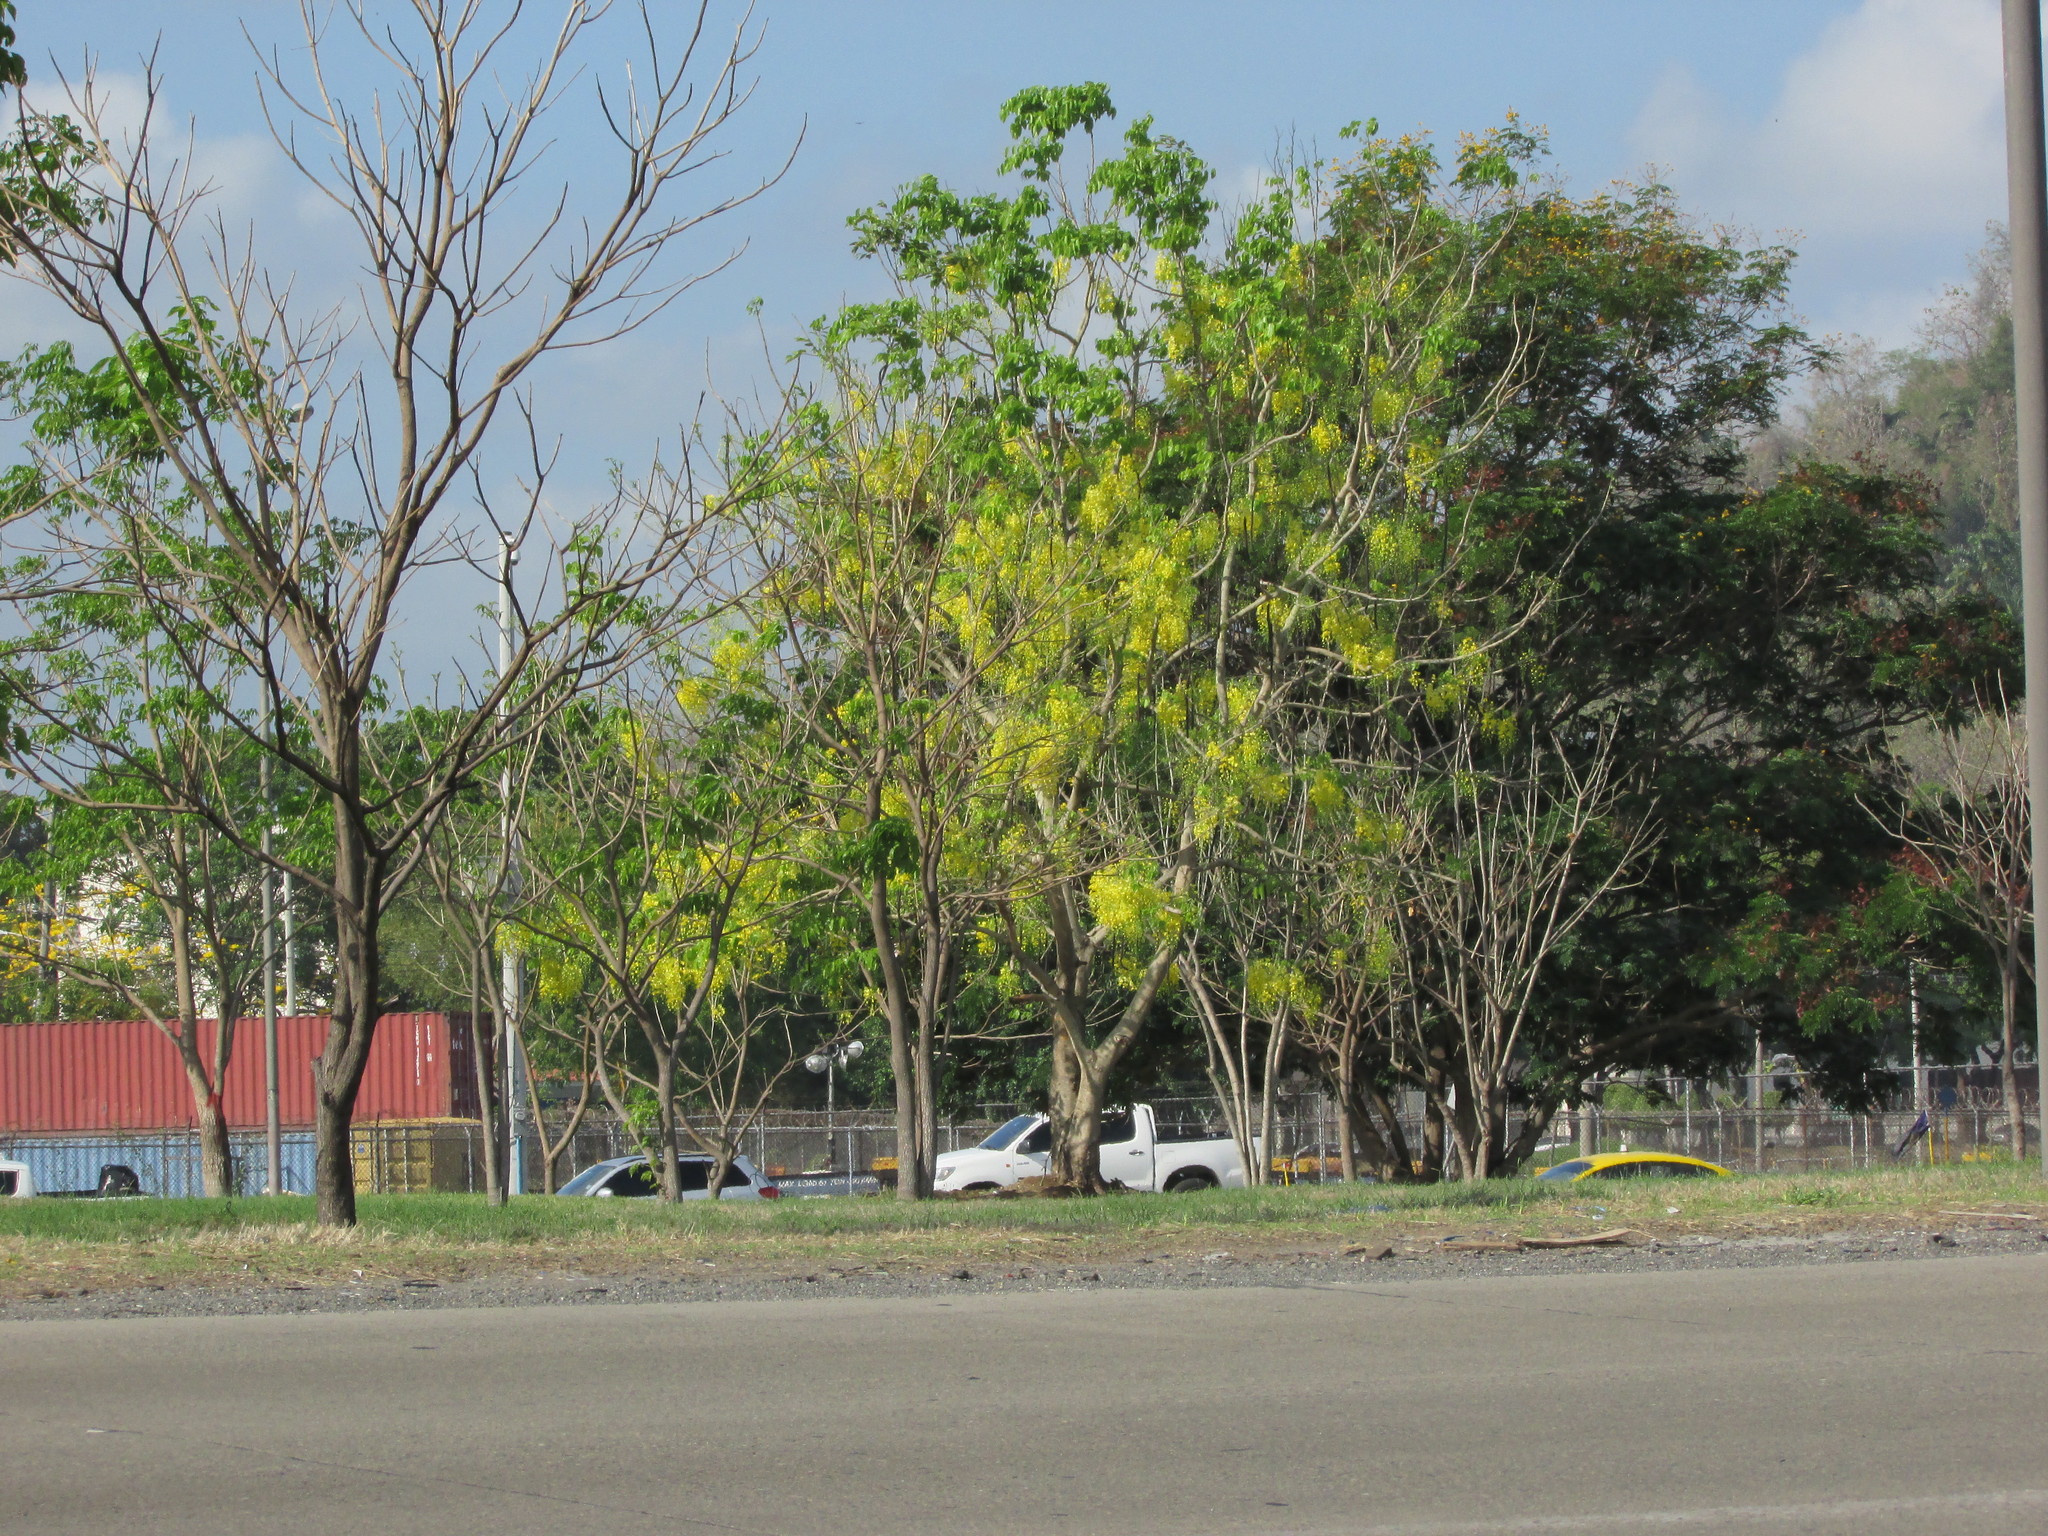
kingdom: Plantae
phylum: Tracheophyta
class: Magnoliopsida
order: Fabales
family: Fabaceae
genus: Cassia
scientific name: Cassia fistula
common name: Golden shower
